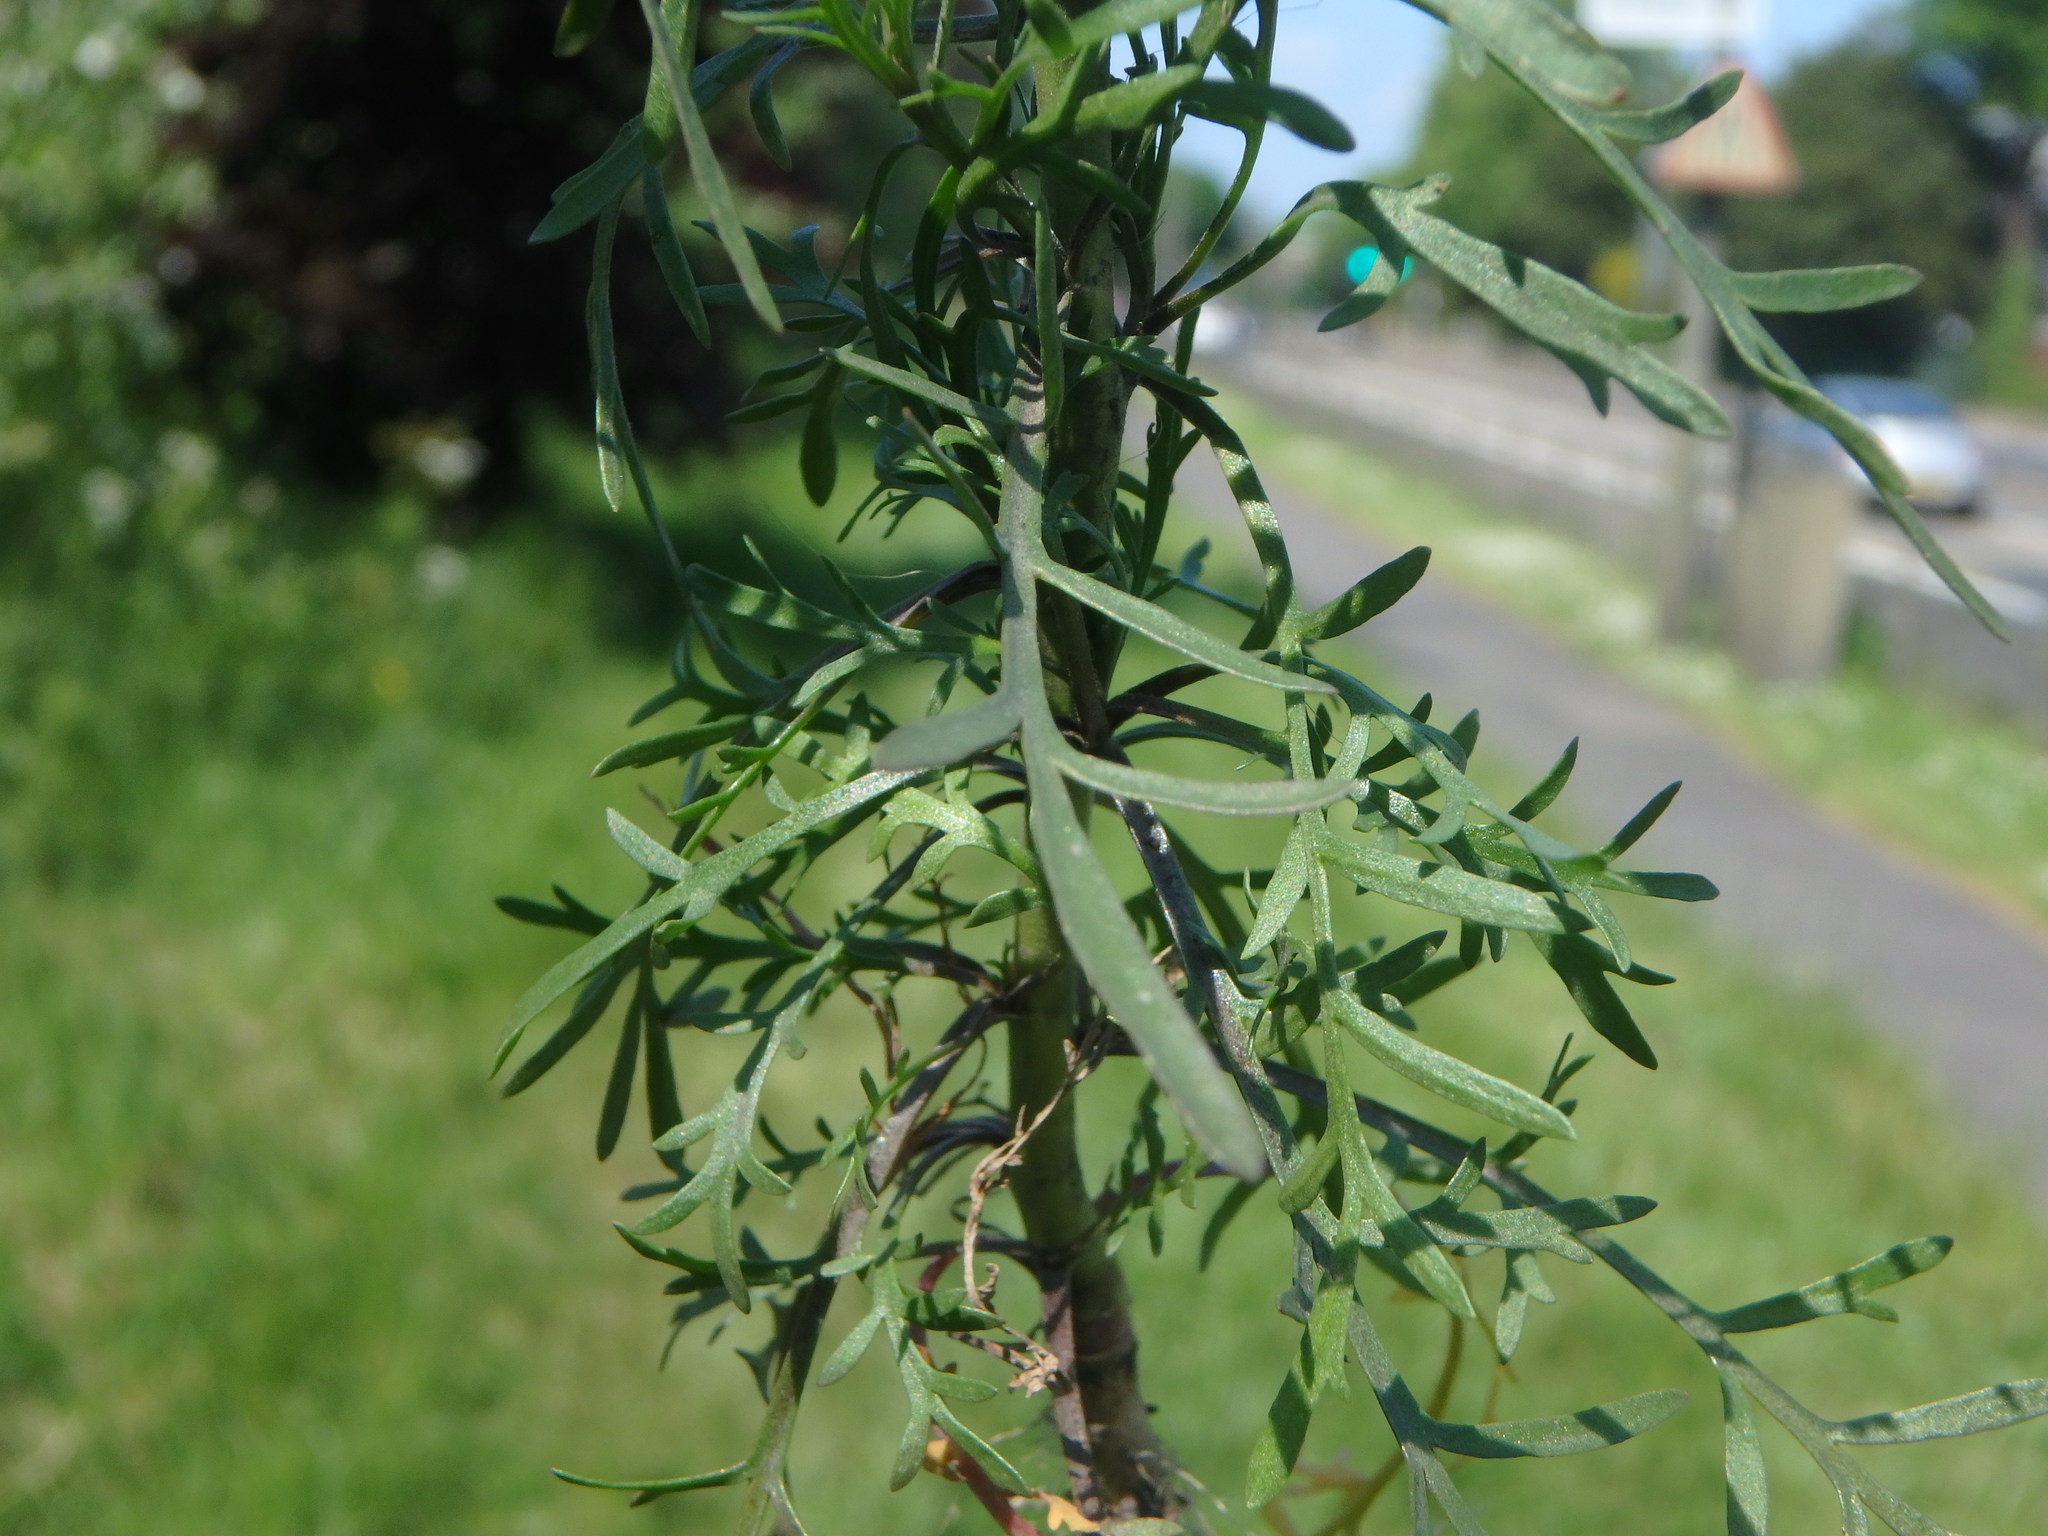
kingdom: Plantae
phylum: Tracheophyta
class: Magnoliopsida
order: Brassicales
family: Brassicaceae
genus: Lepidium
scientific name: Lepidium ruderale
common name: Narrow-leaved pepperwort
